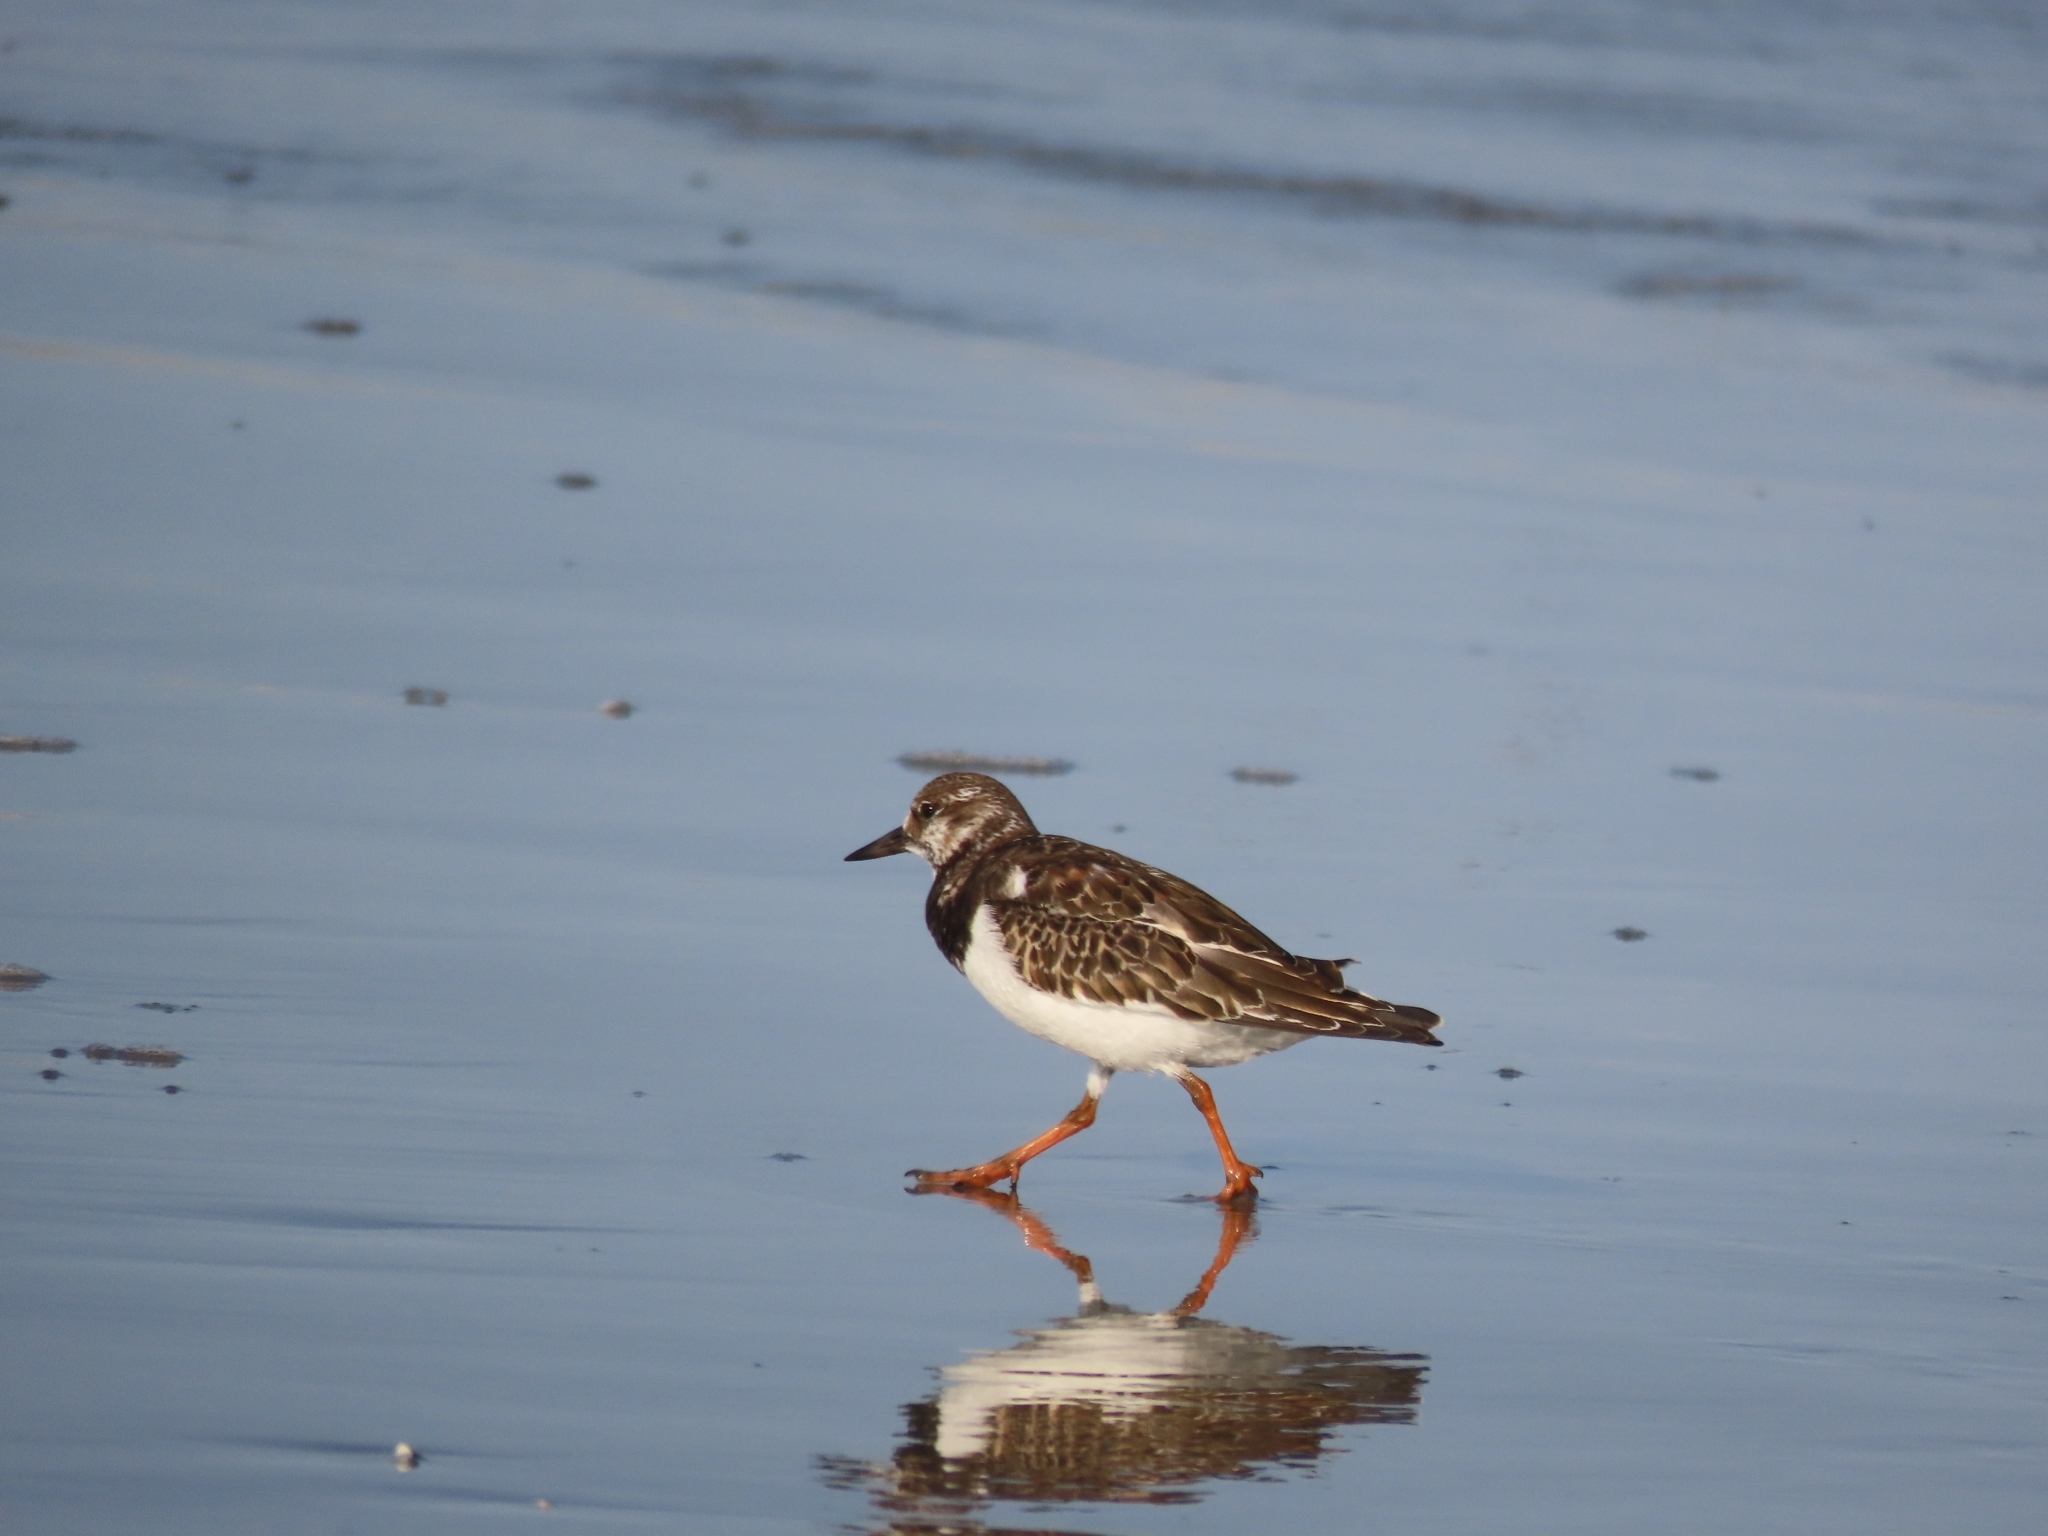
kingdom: Animalia
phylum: Chordata
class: Aves
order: Charadriiformes
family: Scolopacidae
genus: Arenaria
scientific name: Arenaria interpres
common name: Ruddy turnstone
